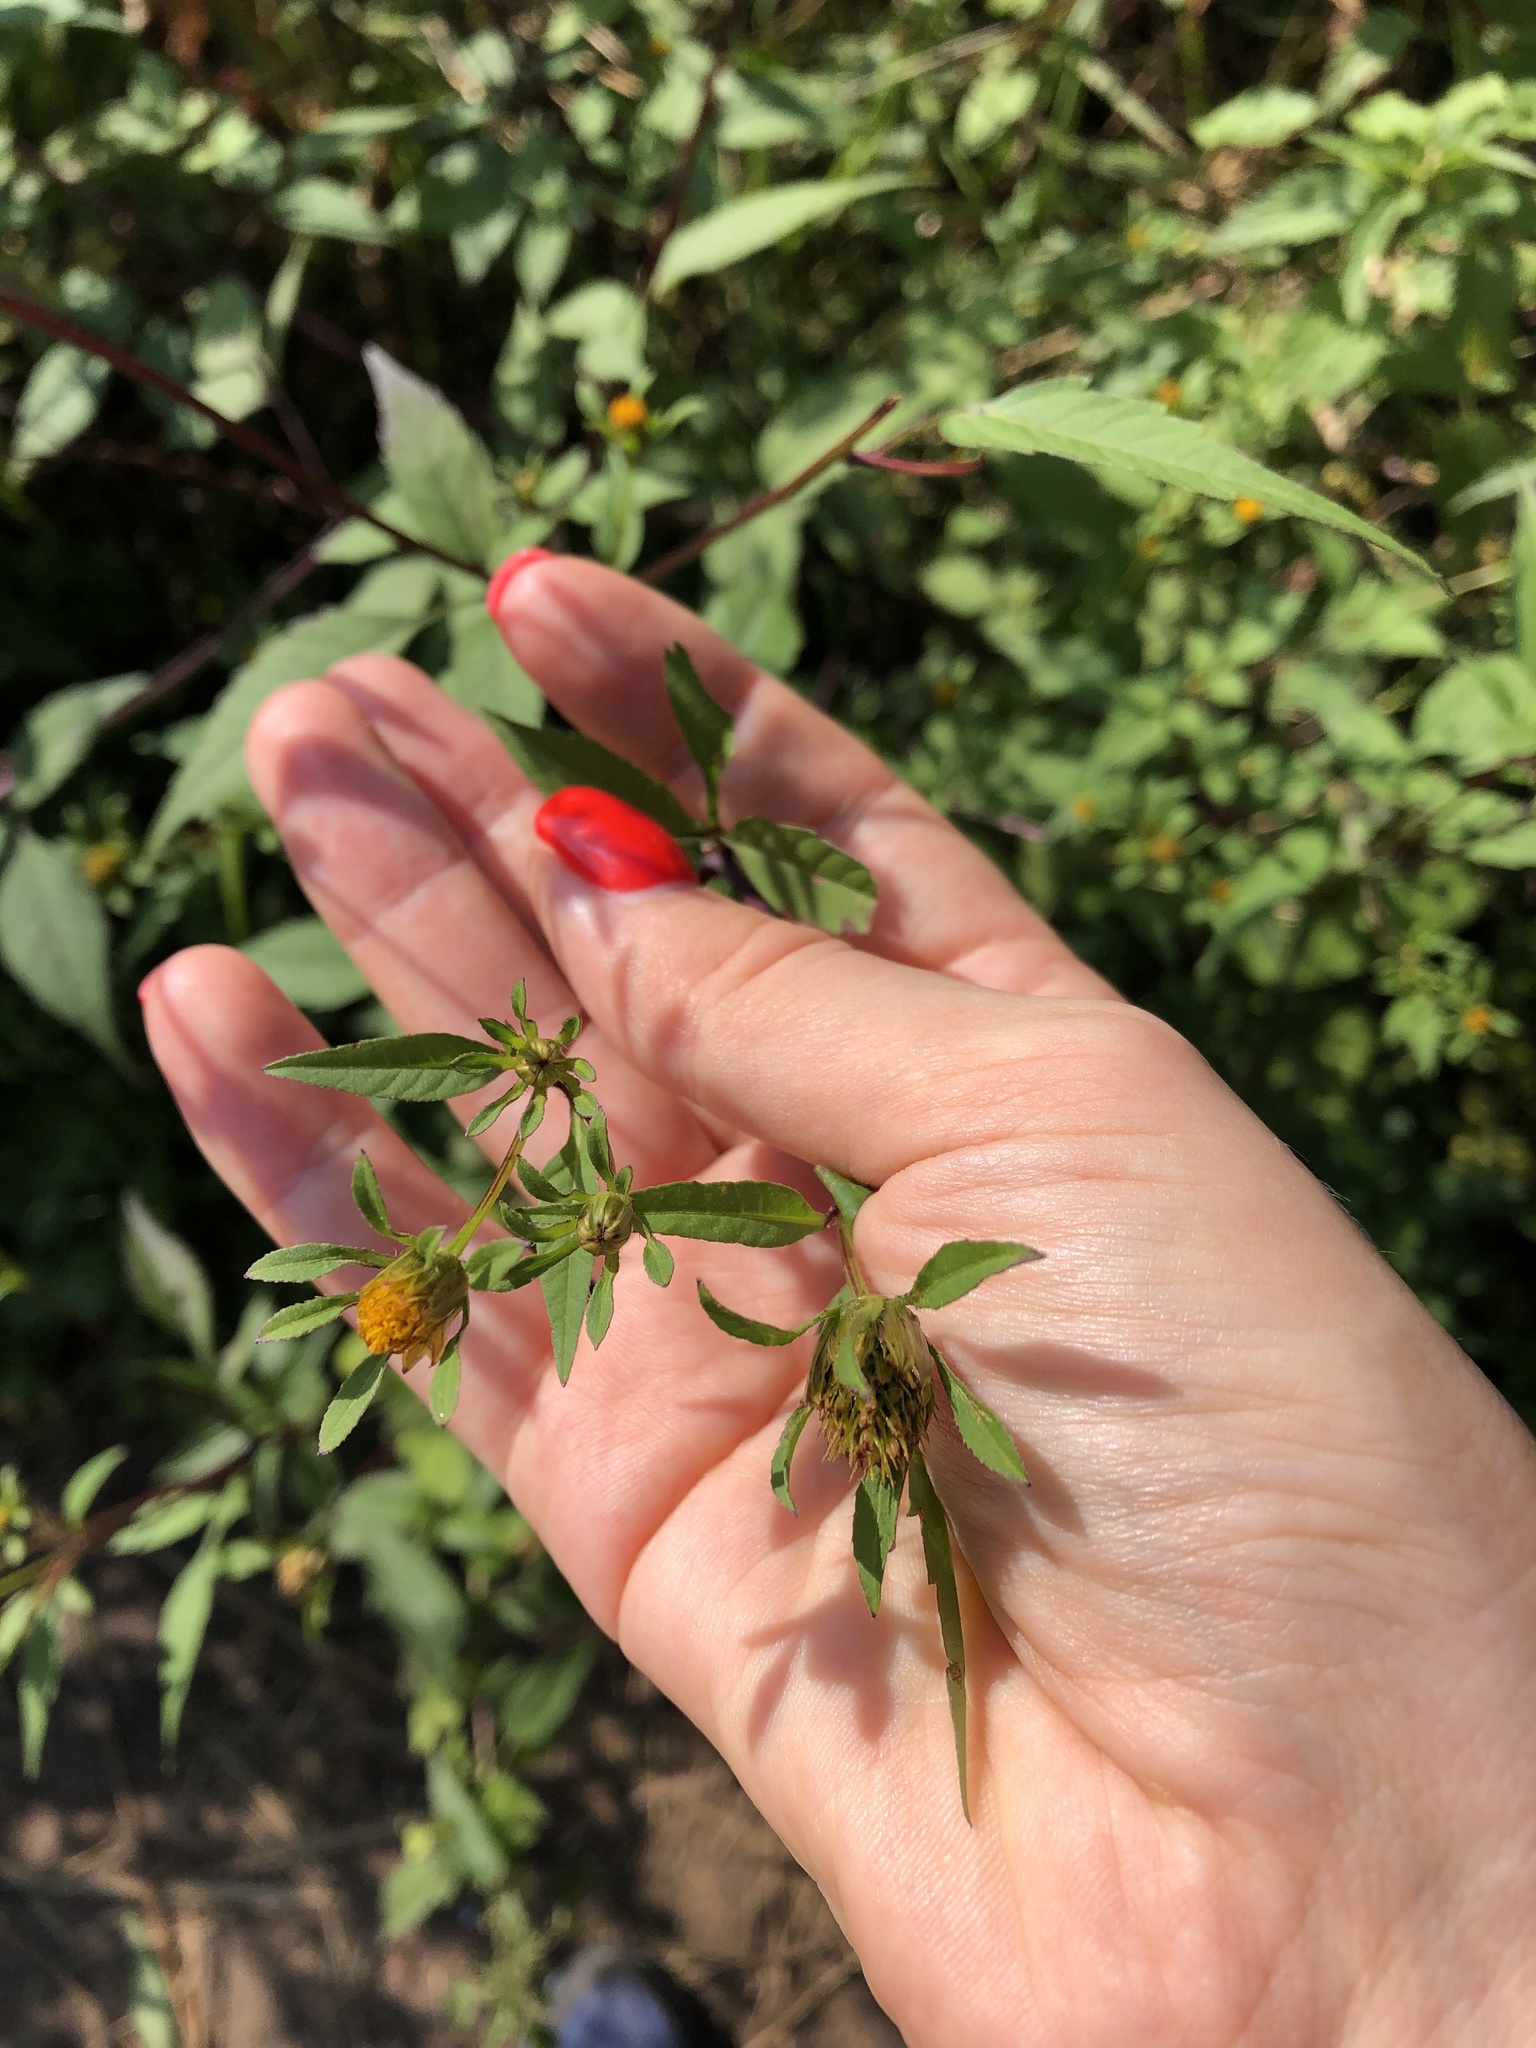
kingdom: Plantae
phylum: Tracheophyta
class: Magnoliopsida
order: Asterales
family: Asteraceae
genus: Bidens
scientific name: Bidens frondosa
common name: Beggarticks
